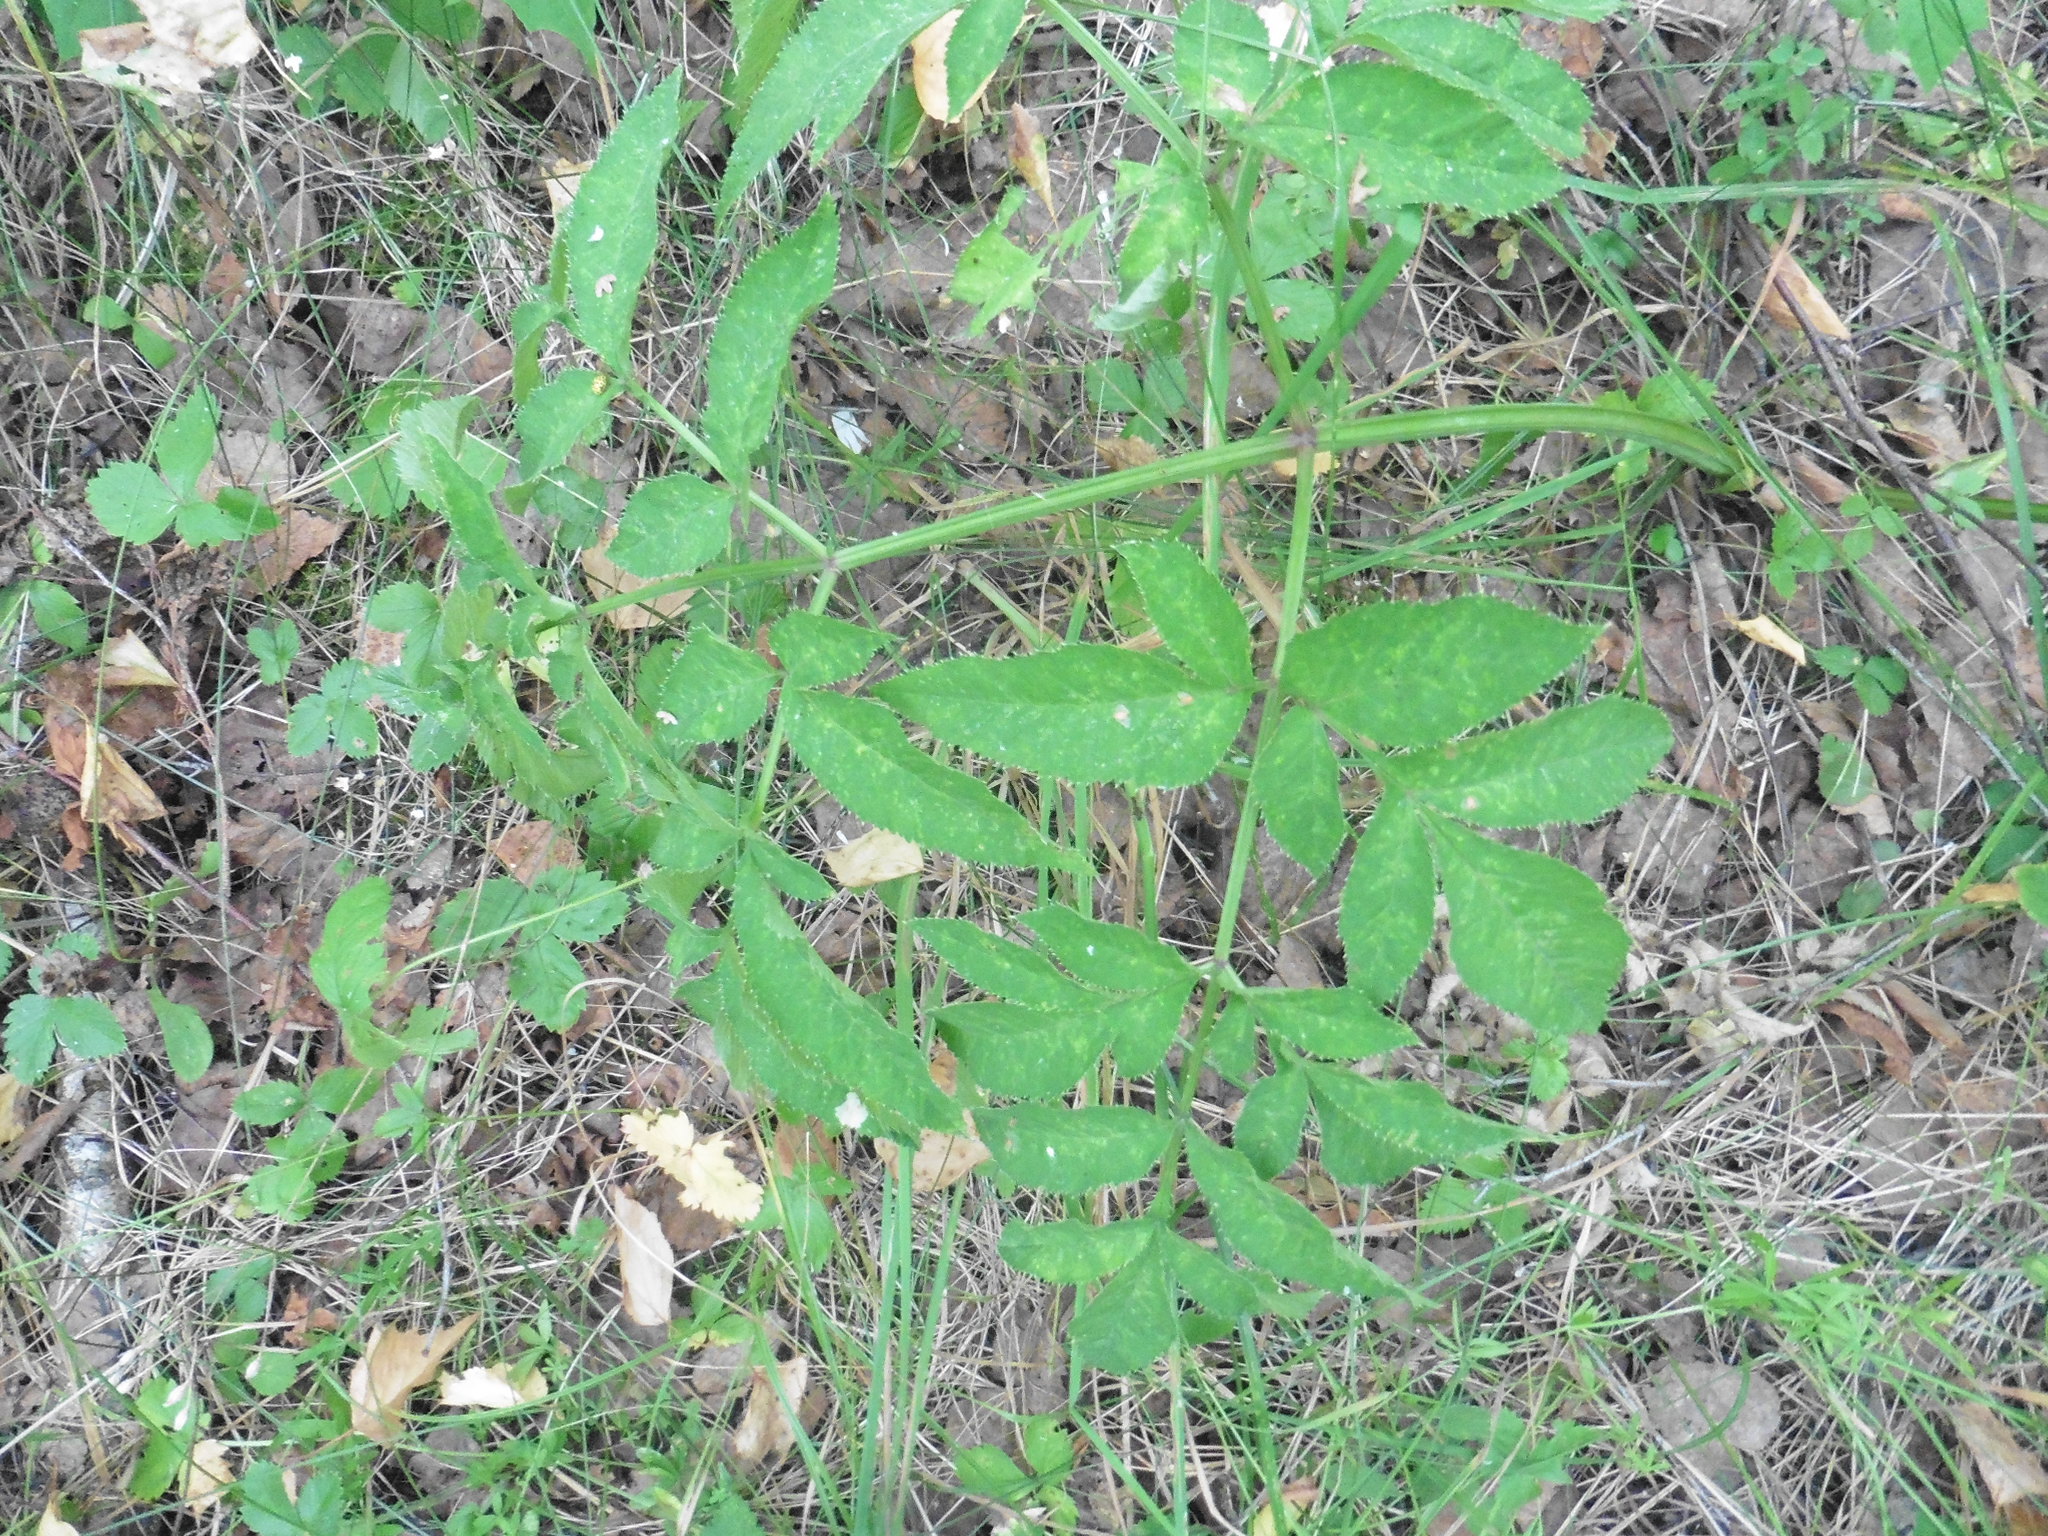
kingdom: Plantae
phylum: Tracheophyta
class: Magnoliopsida
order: Apiales
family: Apiaceae
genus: Angelica
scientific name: Angelica sylvestris
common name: Wild angelica
